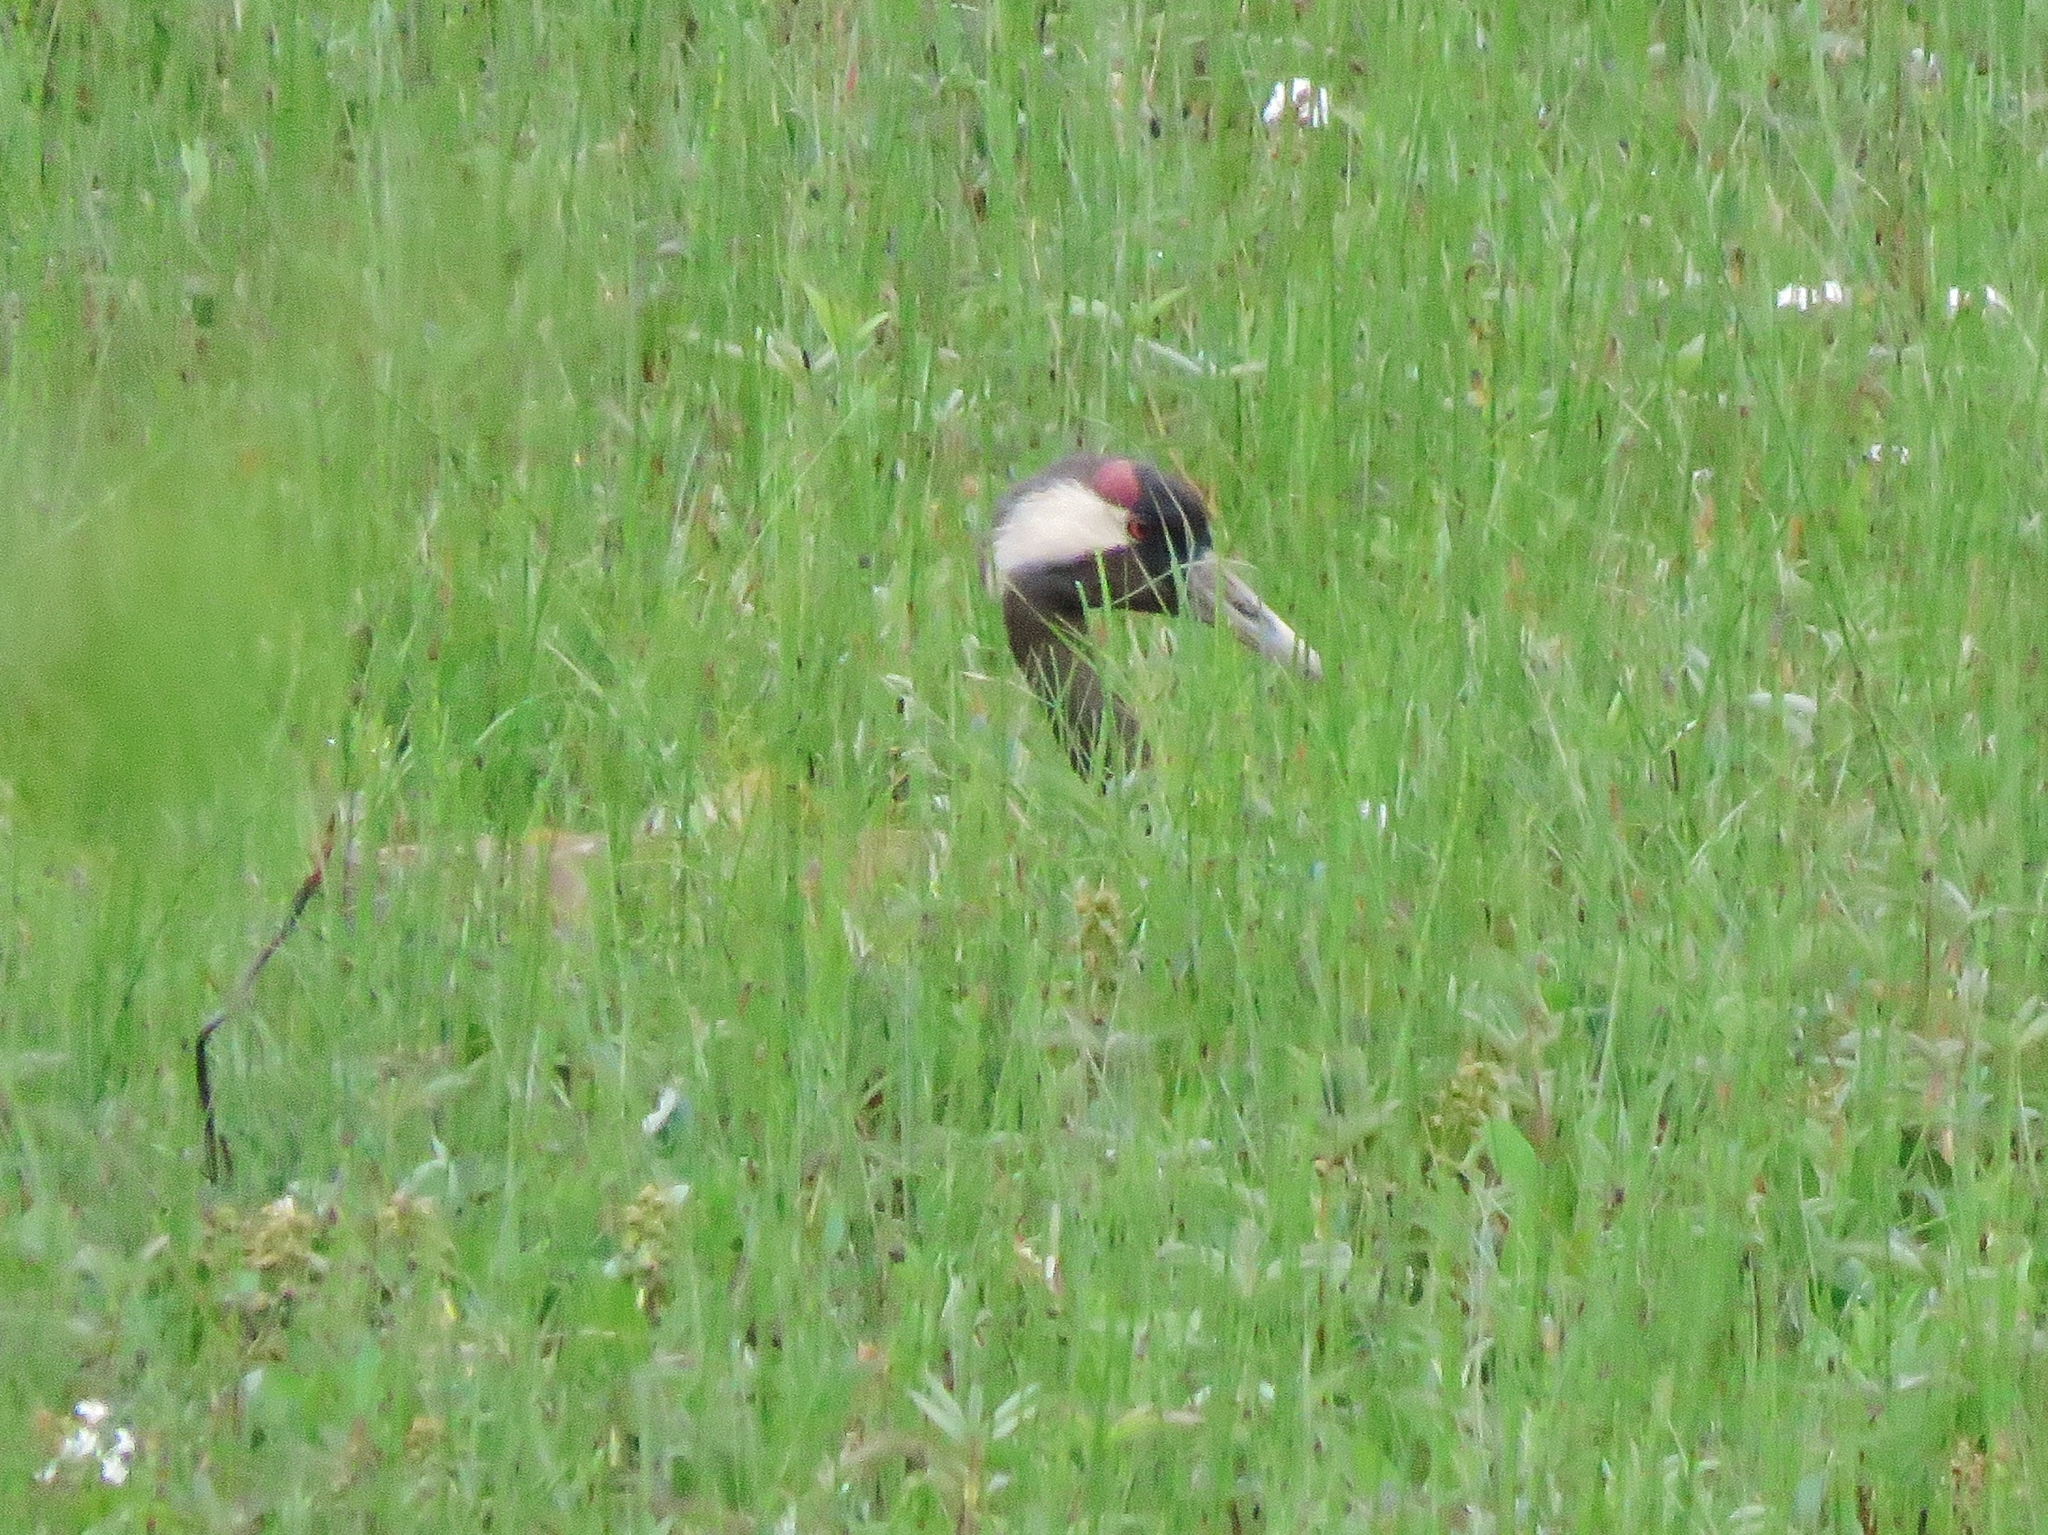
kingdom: Animalia
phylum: Chordata
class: Aves
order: Gruiformes
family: Gruidae
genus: Grus
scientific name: Grus grus
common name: Common crane
